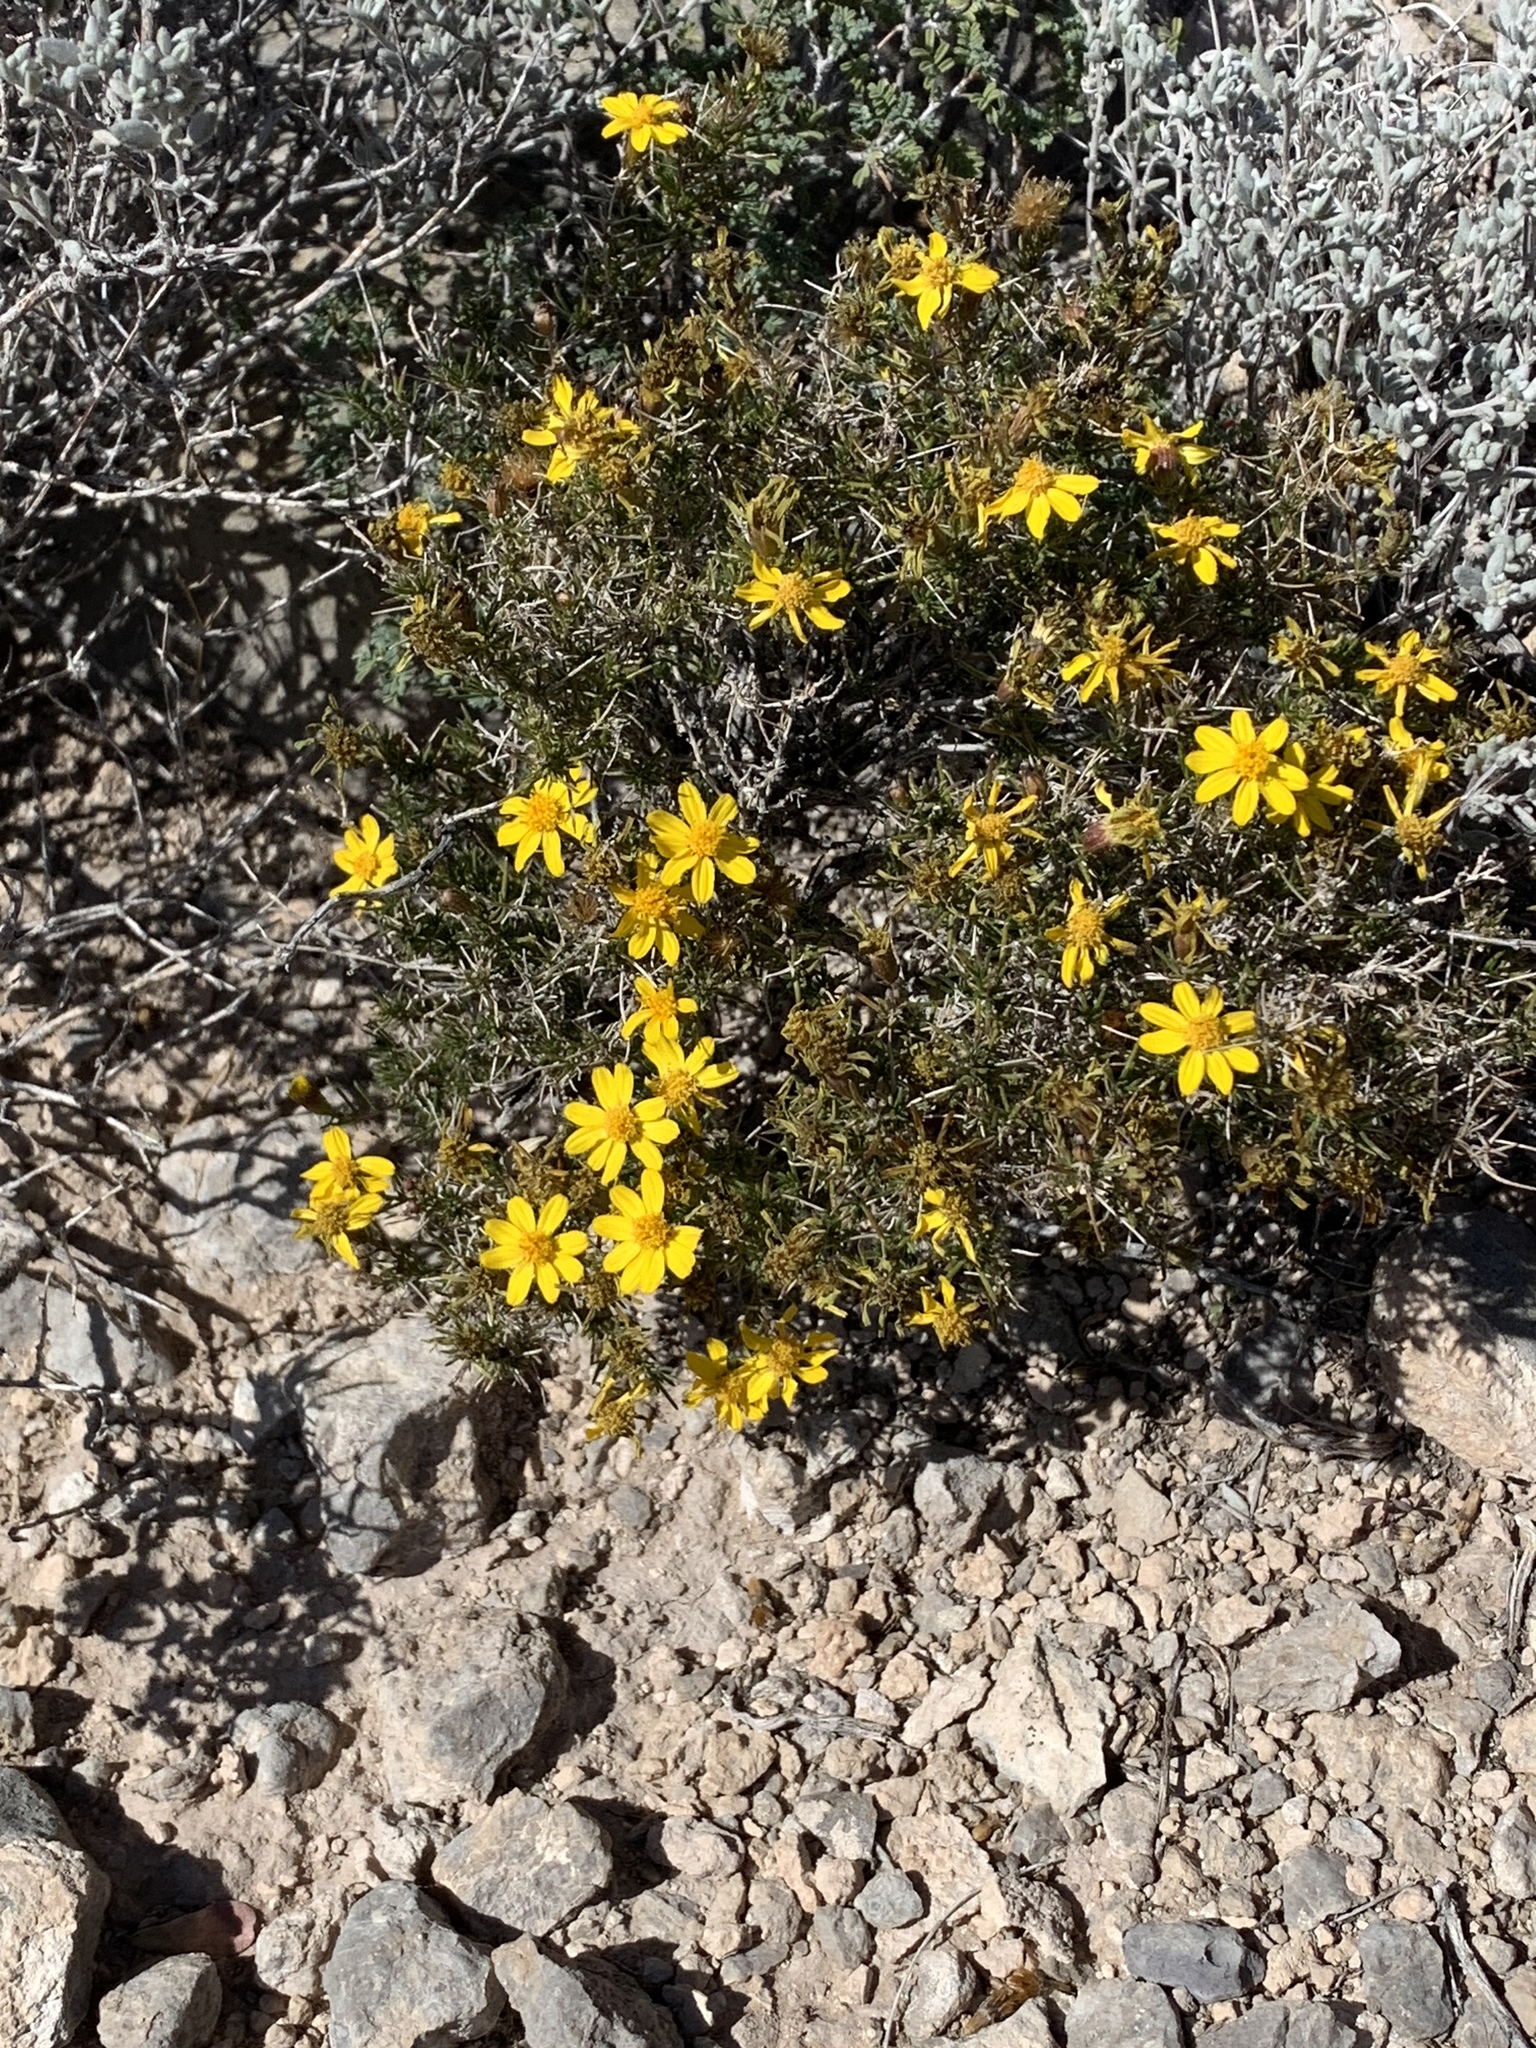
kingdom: Plantae
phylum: Tracheophyta
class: Magnoliopsida
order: Asterales
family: Asteraceae
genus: Thymophylla
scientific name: Thymophylla acerosa
